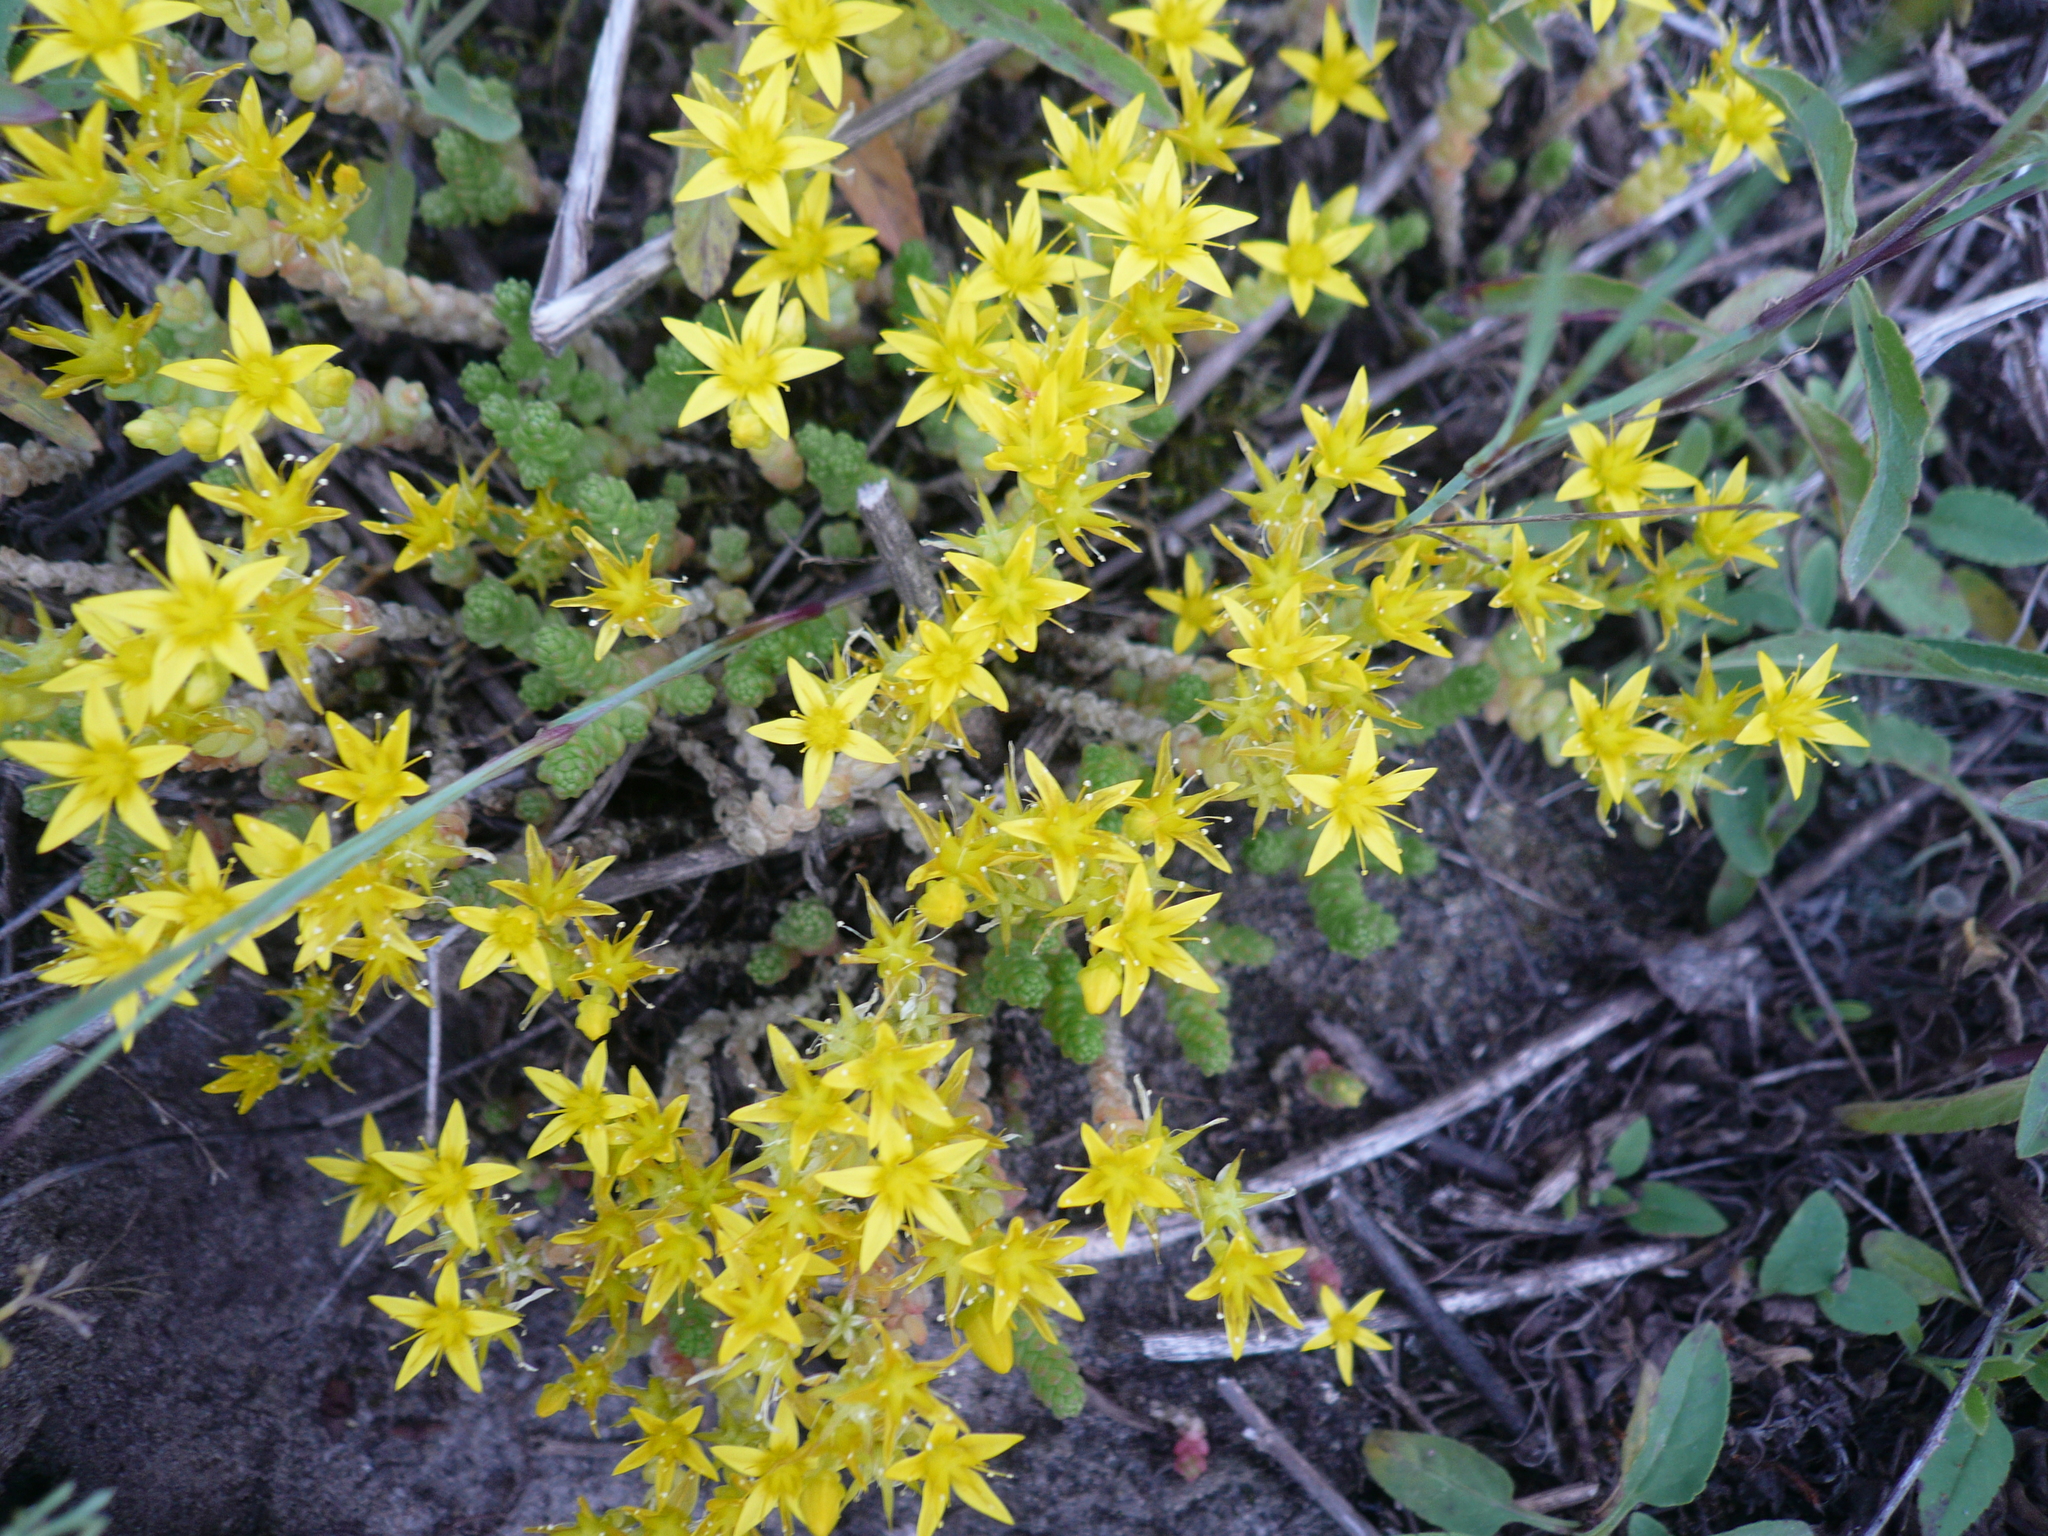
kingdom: Plantae
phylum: Tracheophyta
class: Magnoliopsida
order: Saxifragales
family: Crassulaceae
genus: Sedum
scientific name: Sedum acre
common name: Biting stonecrop
